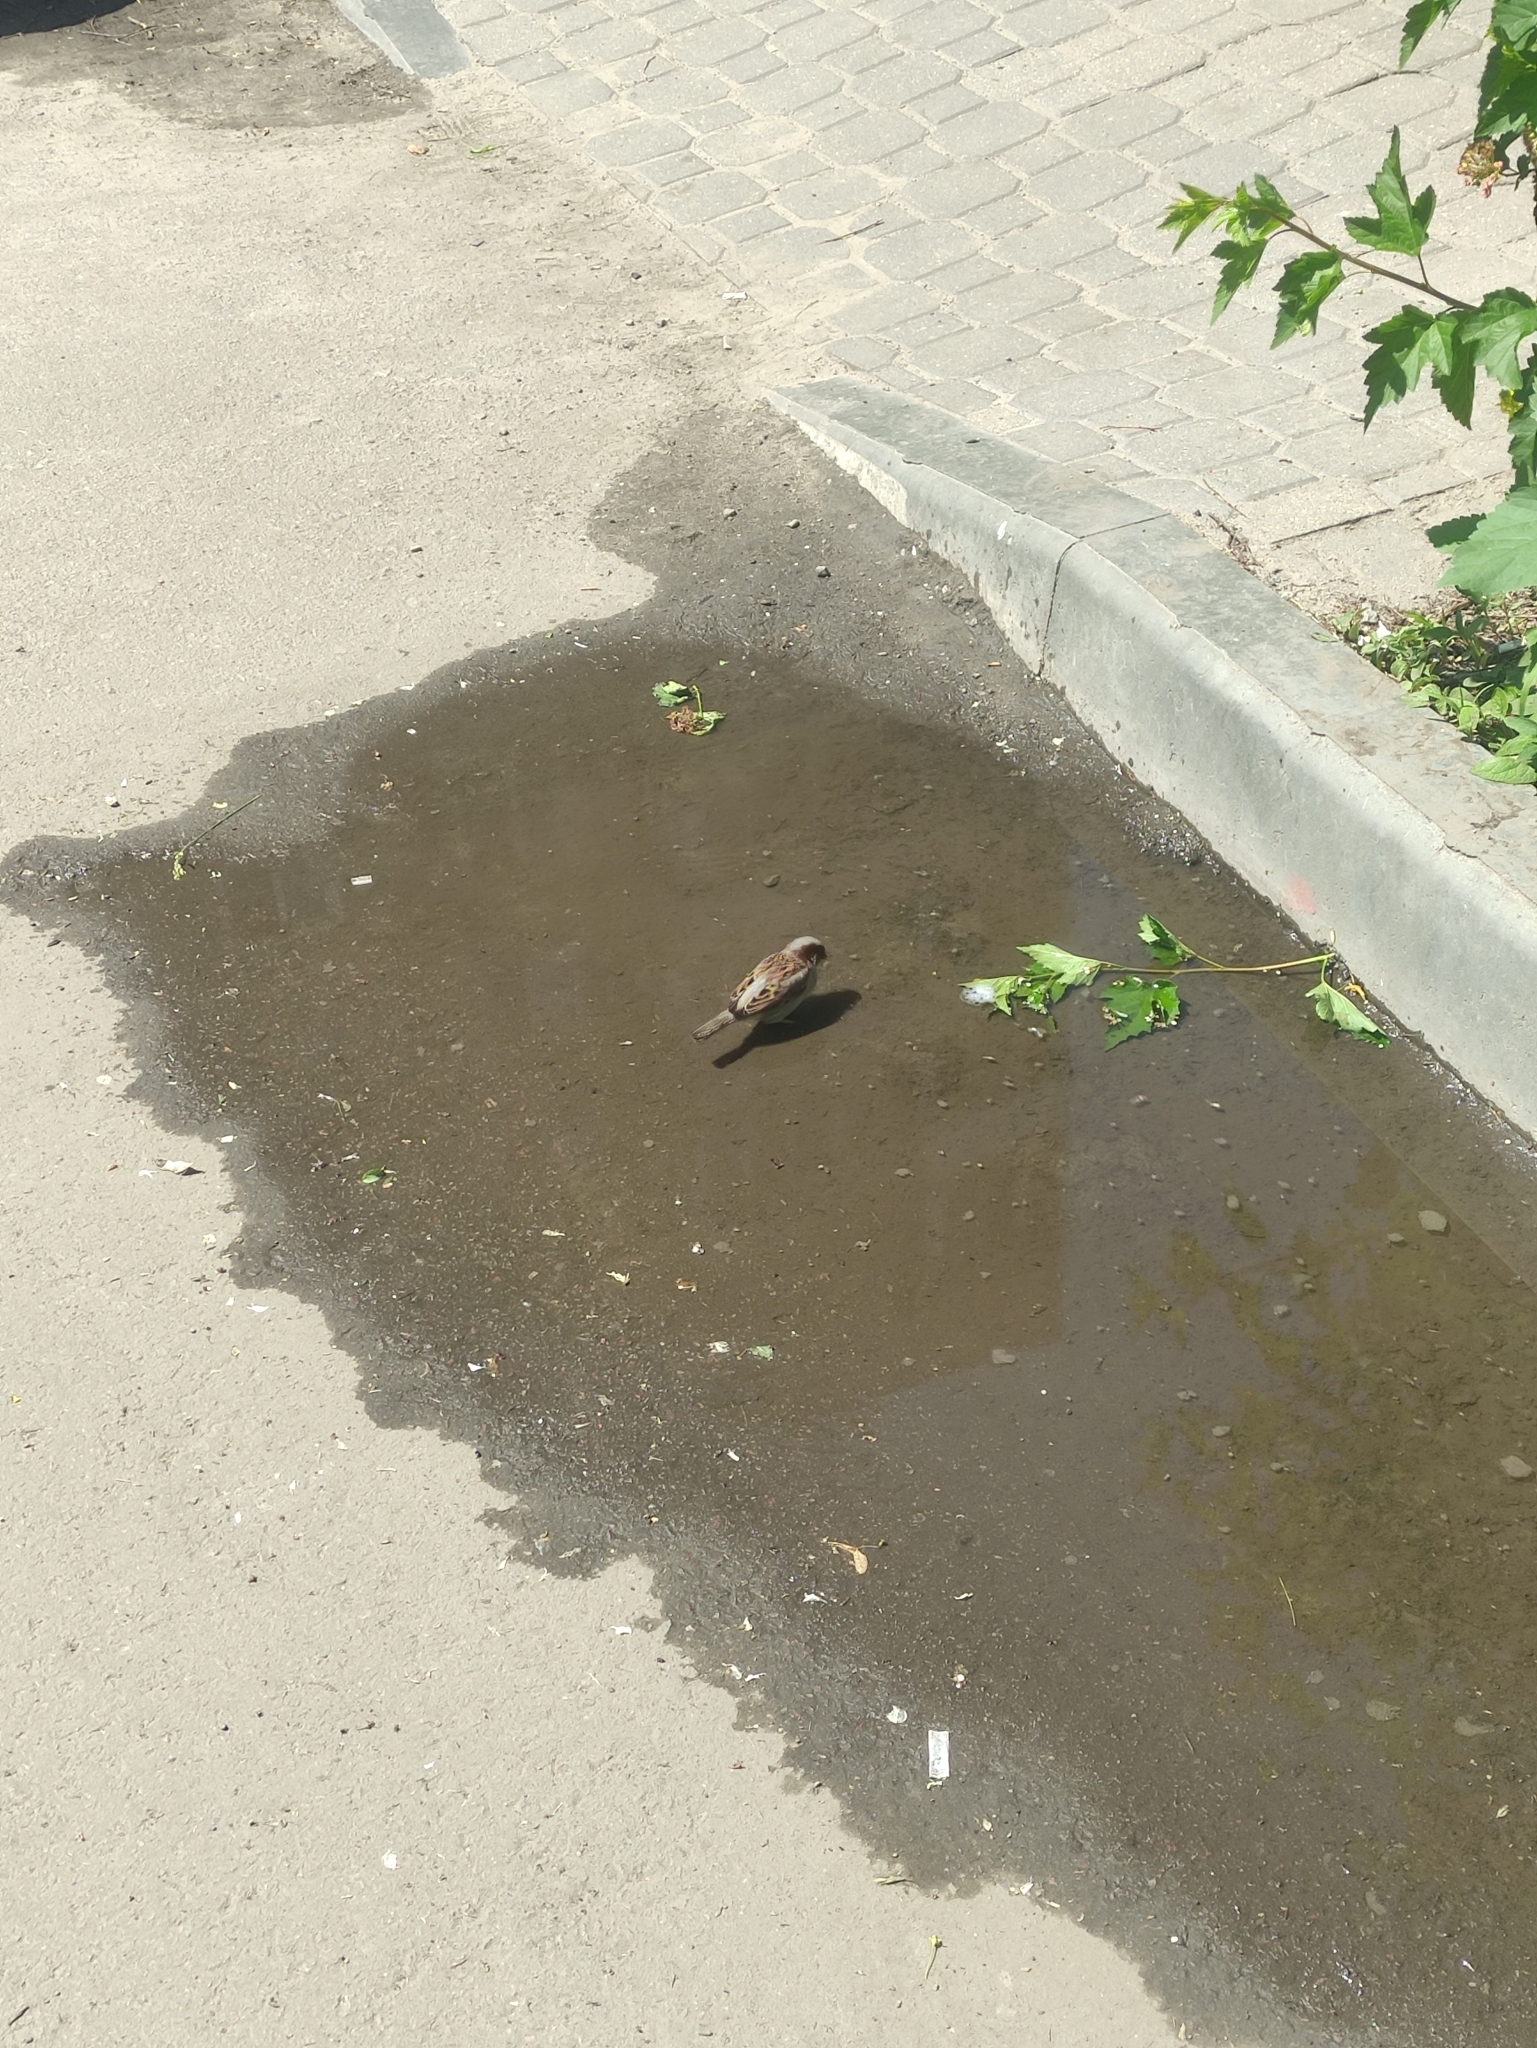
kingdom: Animalia
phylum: Chordata
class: Aves
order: Passeriformes
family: Passeridae
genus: Passer
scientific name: Passer domesticus
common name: House sparrow
